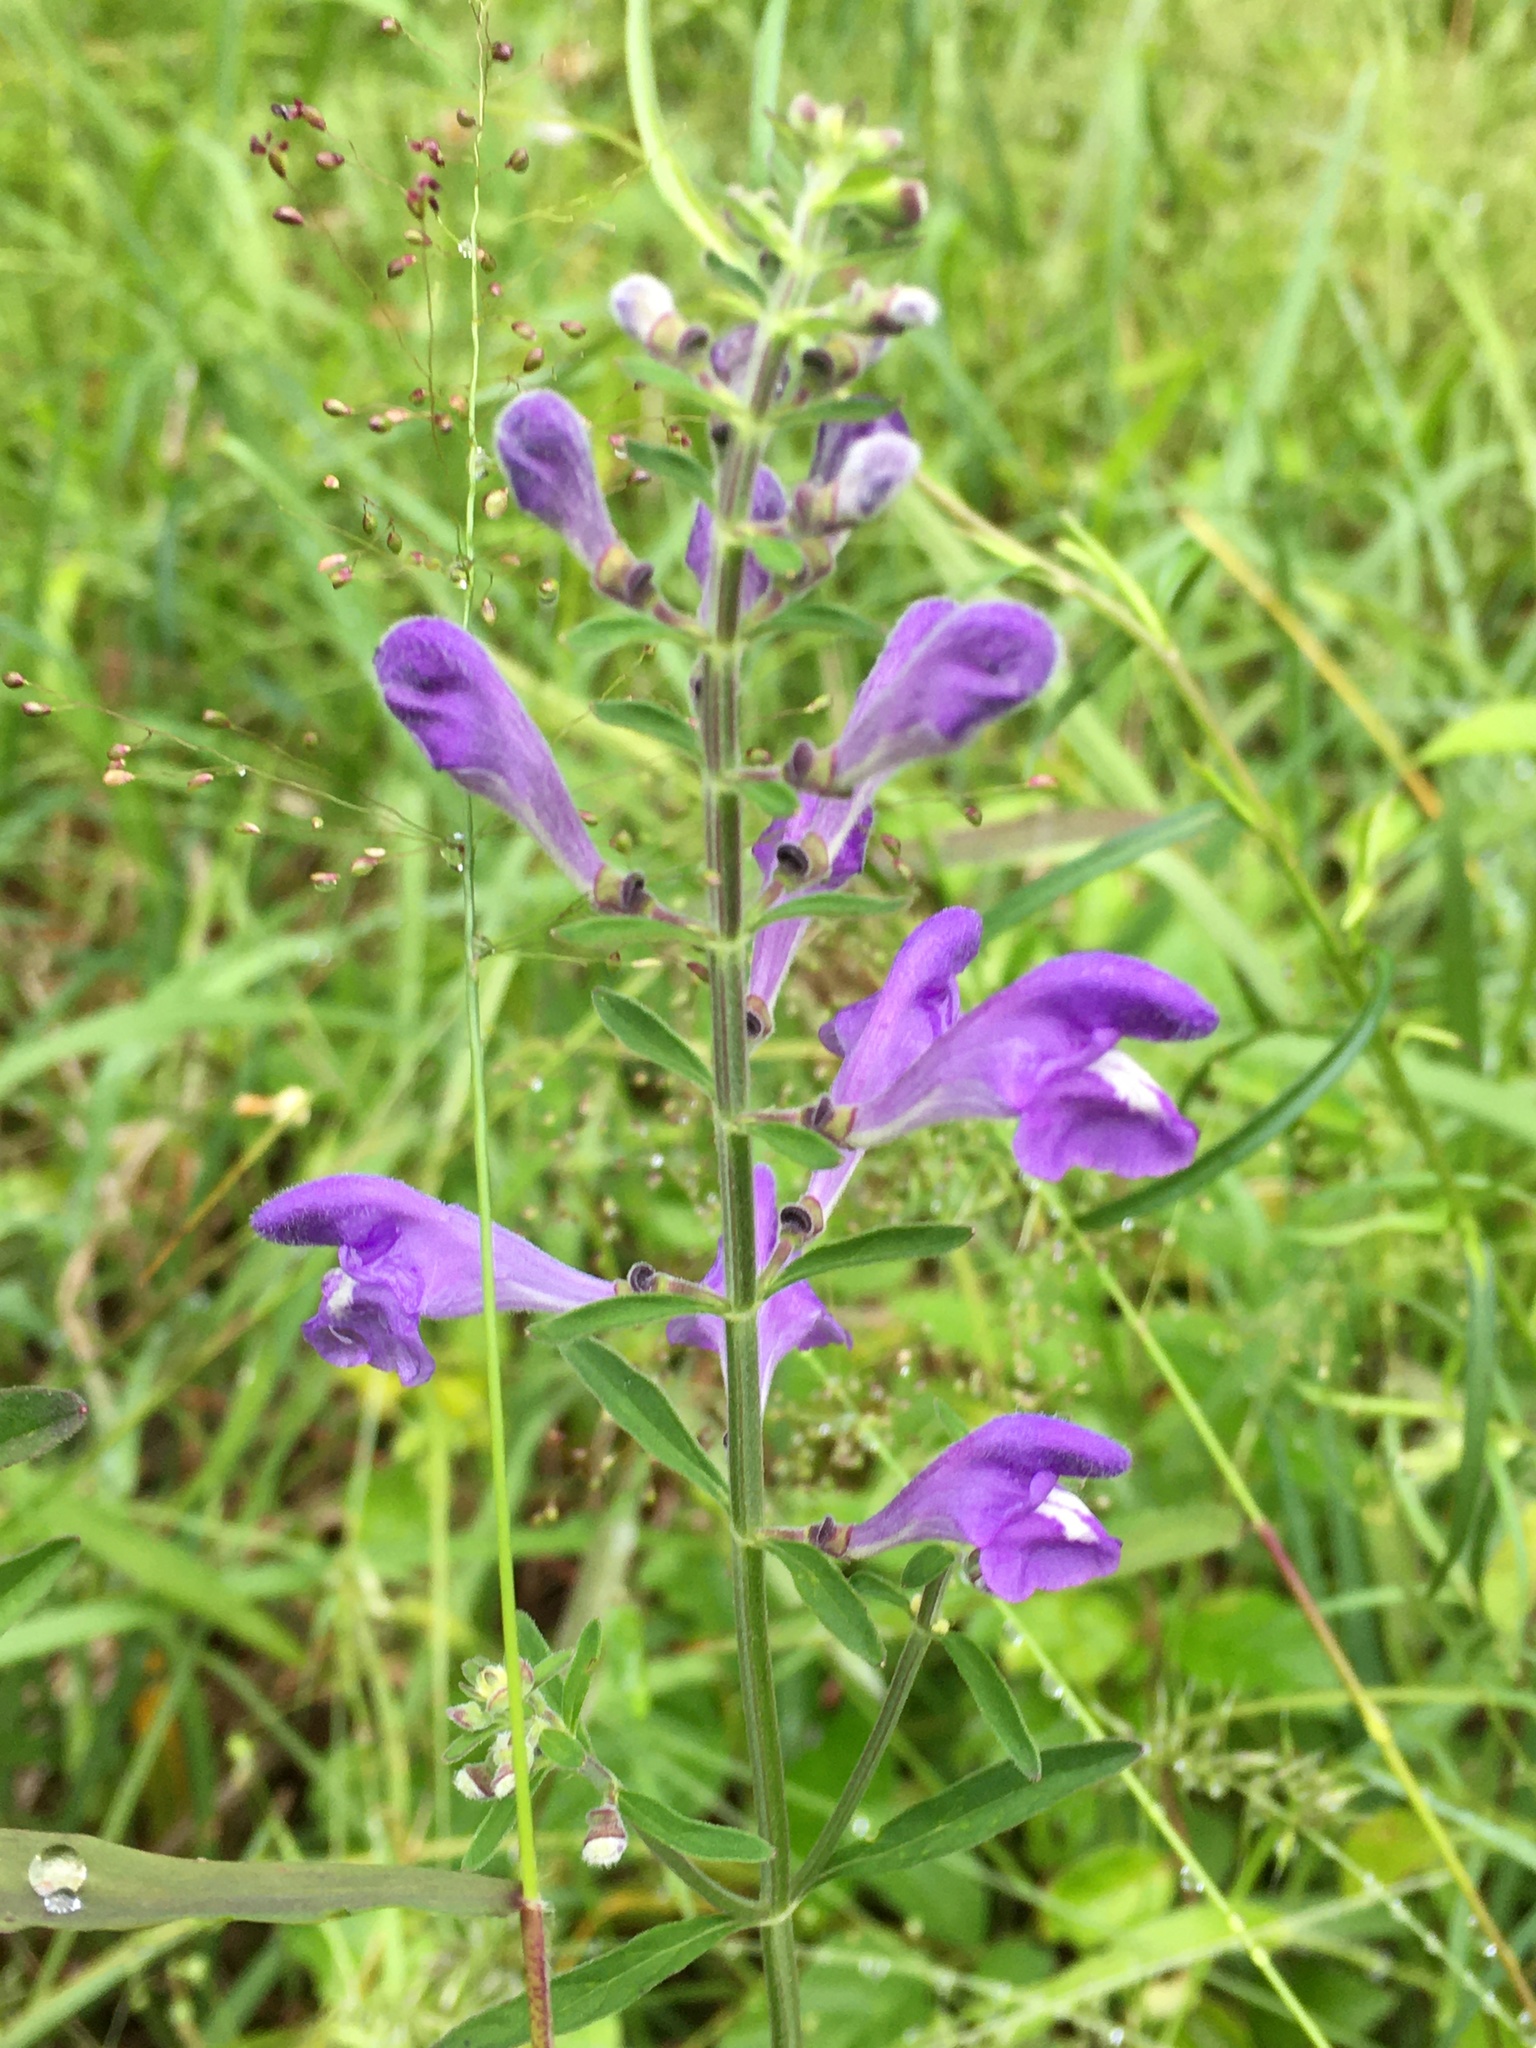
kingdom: Plantae
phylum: Tracheophyta
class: Magnoliopsida
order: Lamiales
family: Lamiaceae
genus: Scutellaria
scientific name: Scutellaria integrifolia
